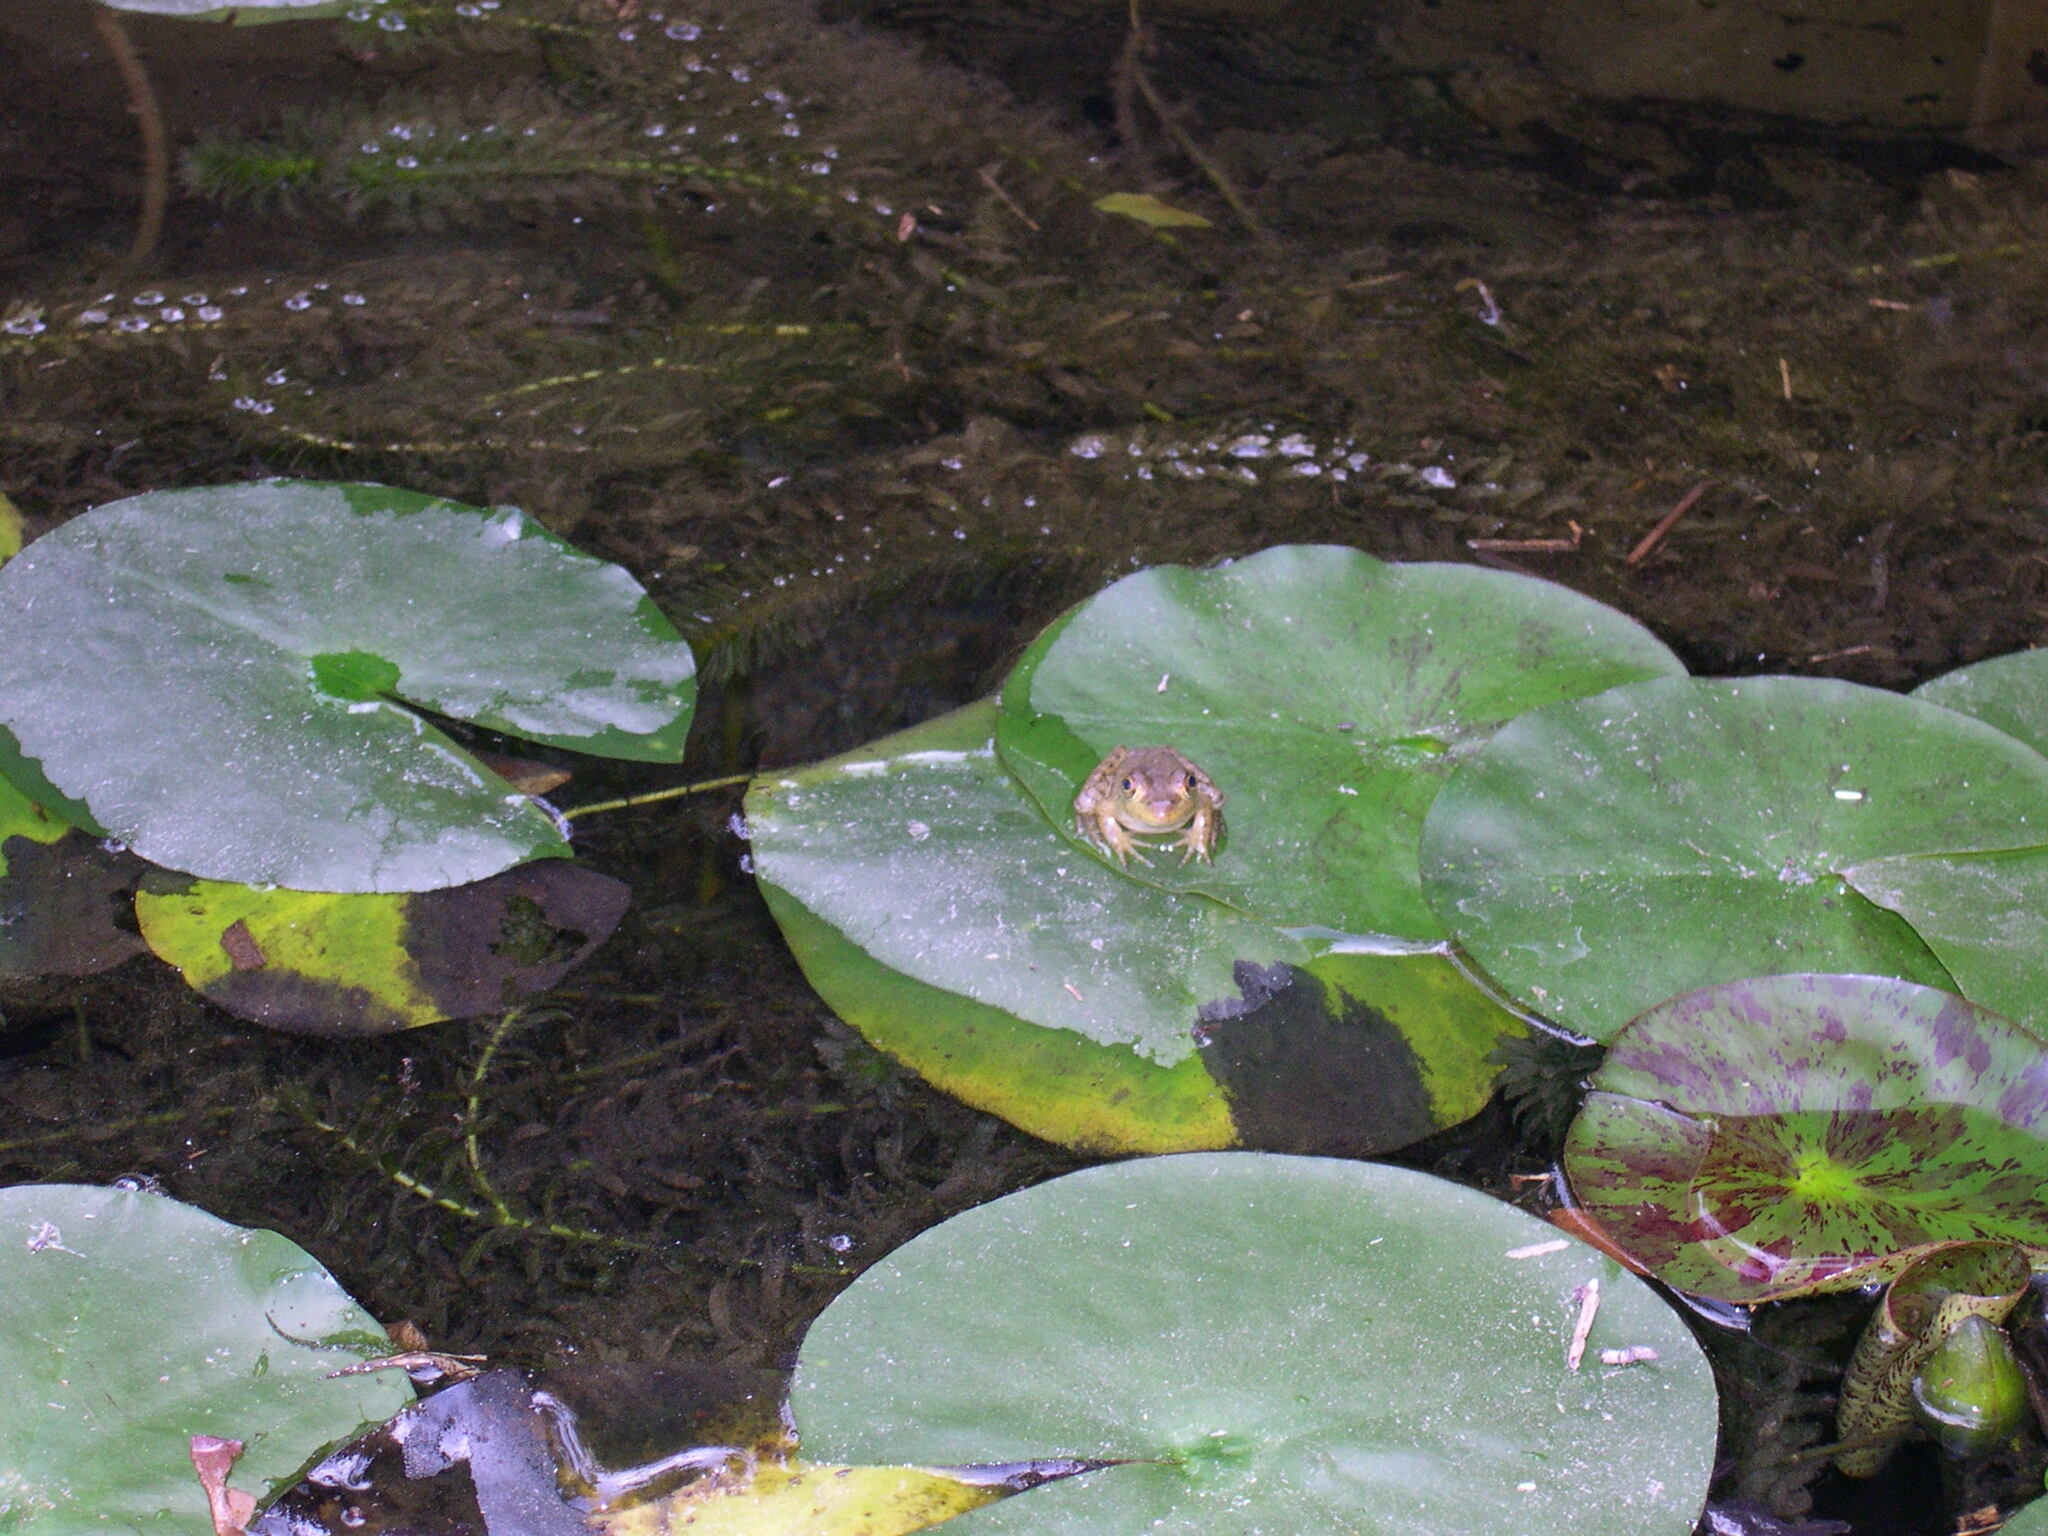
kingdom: Animalia
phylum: Chordata
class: Amphibia
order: Anura
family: Ranidae
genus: Lithobates
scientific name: Lithobates catesbeianus
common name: American bullfrog
